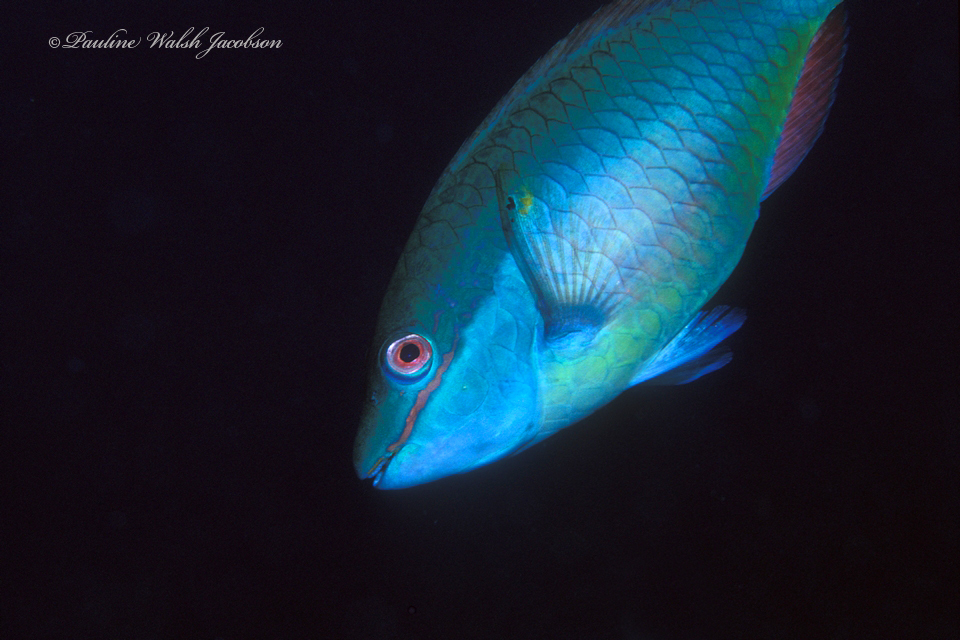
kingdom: Animalia
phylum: Chordata
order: Perciformes
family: Scaridae
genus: Sparisoma
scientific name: Sparisoma aurofrenatum
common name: Redband parrotfish
